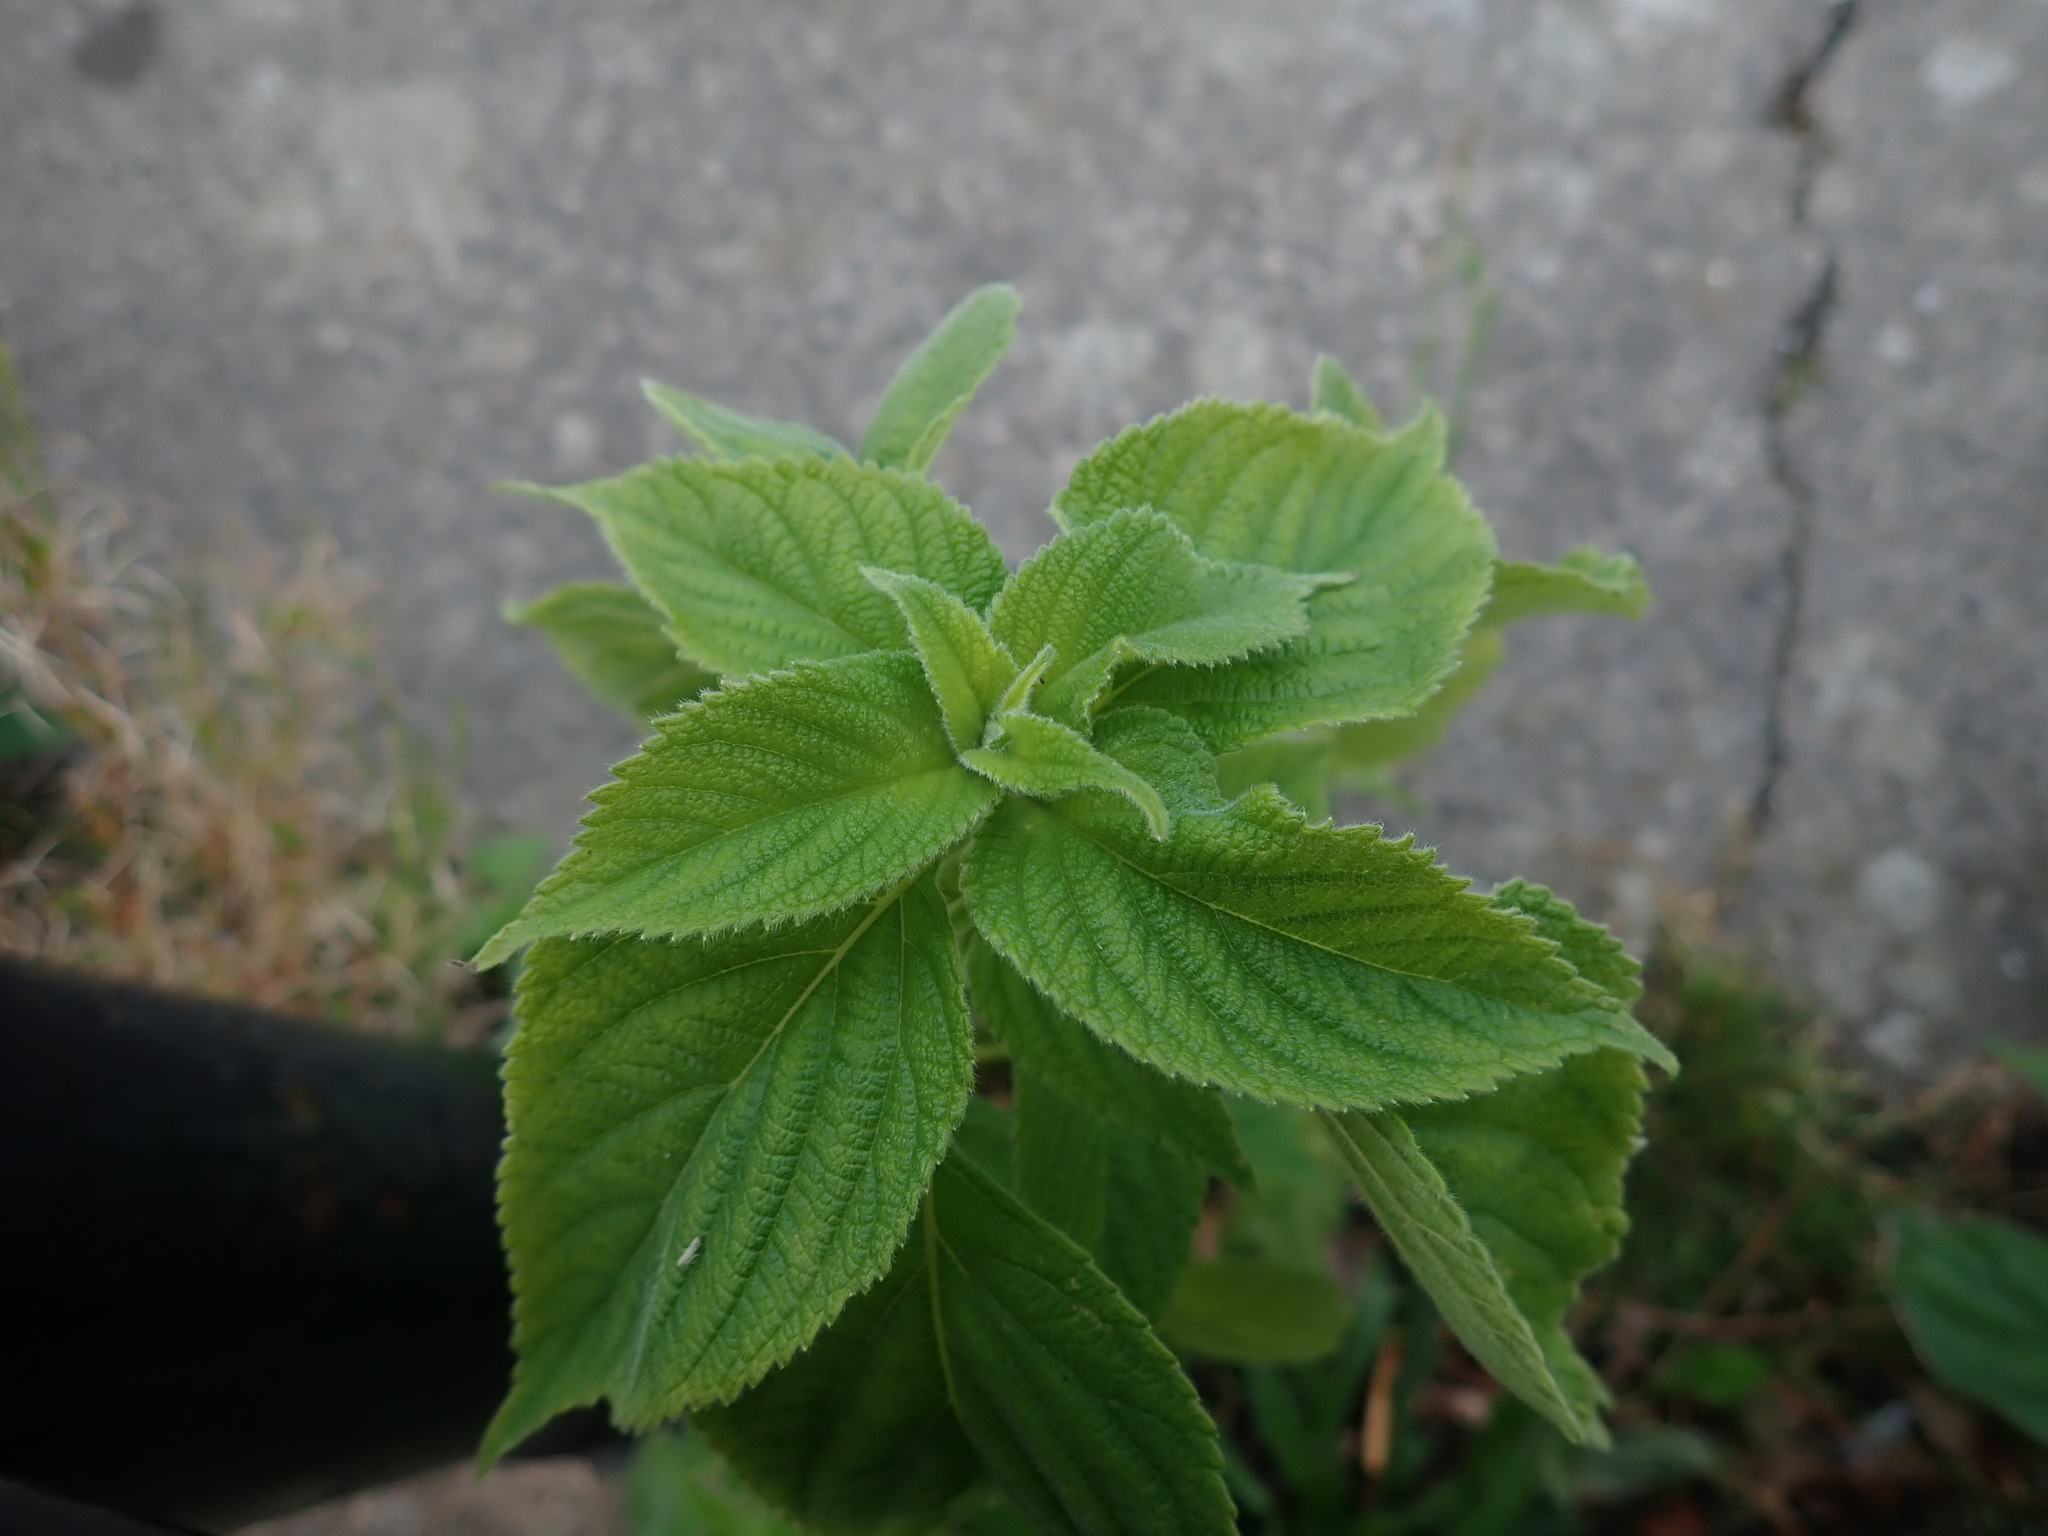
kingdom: Plantae
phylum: Tracheophyta
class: Magnoliopsida
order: Lamiales
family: Lamiaceae
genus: Salvia
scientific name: Salvia hispanica
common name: Chia
